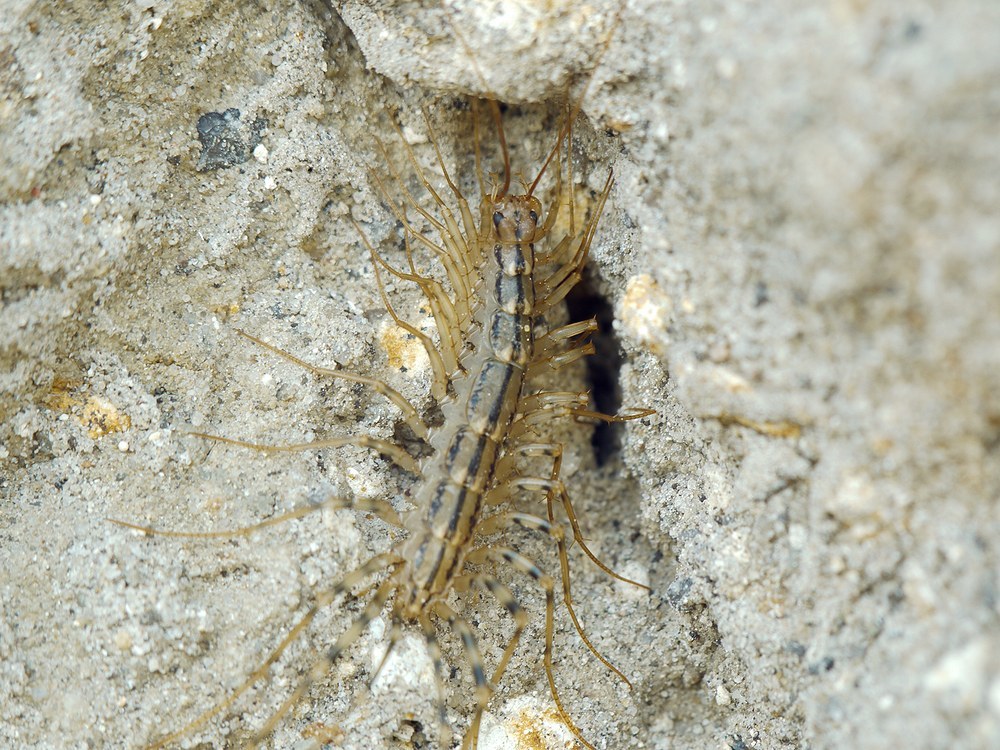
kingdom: Animalia
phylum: Arthropoda
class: Chilopoda
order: Scutigeromorpha
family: Scutigeridae
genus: Scutigera
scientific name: Scutigera coleoptrata
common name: House centipede
